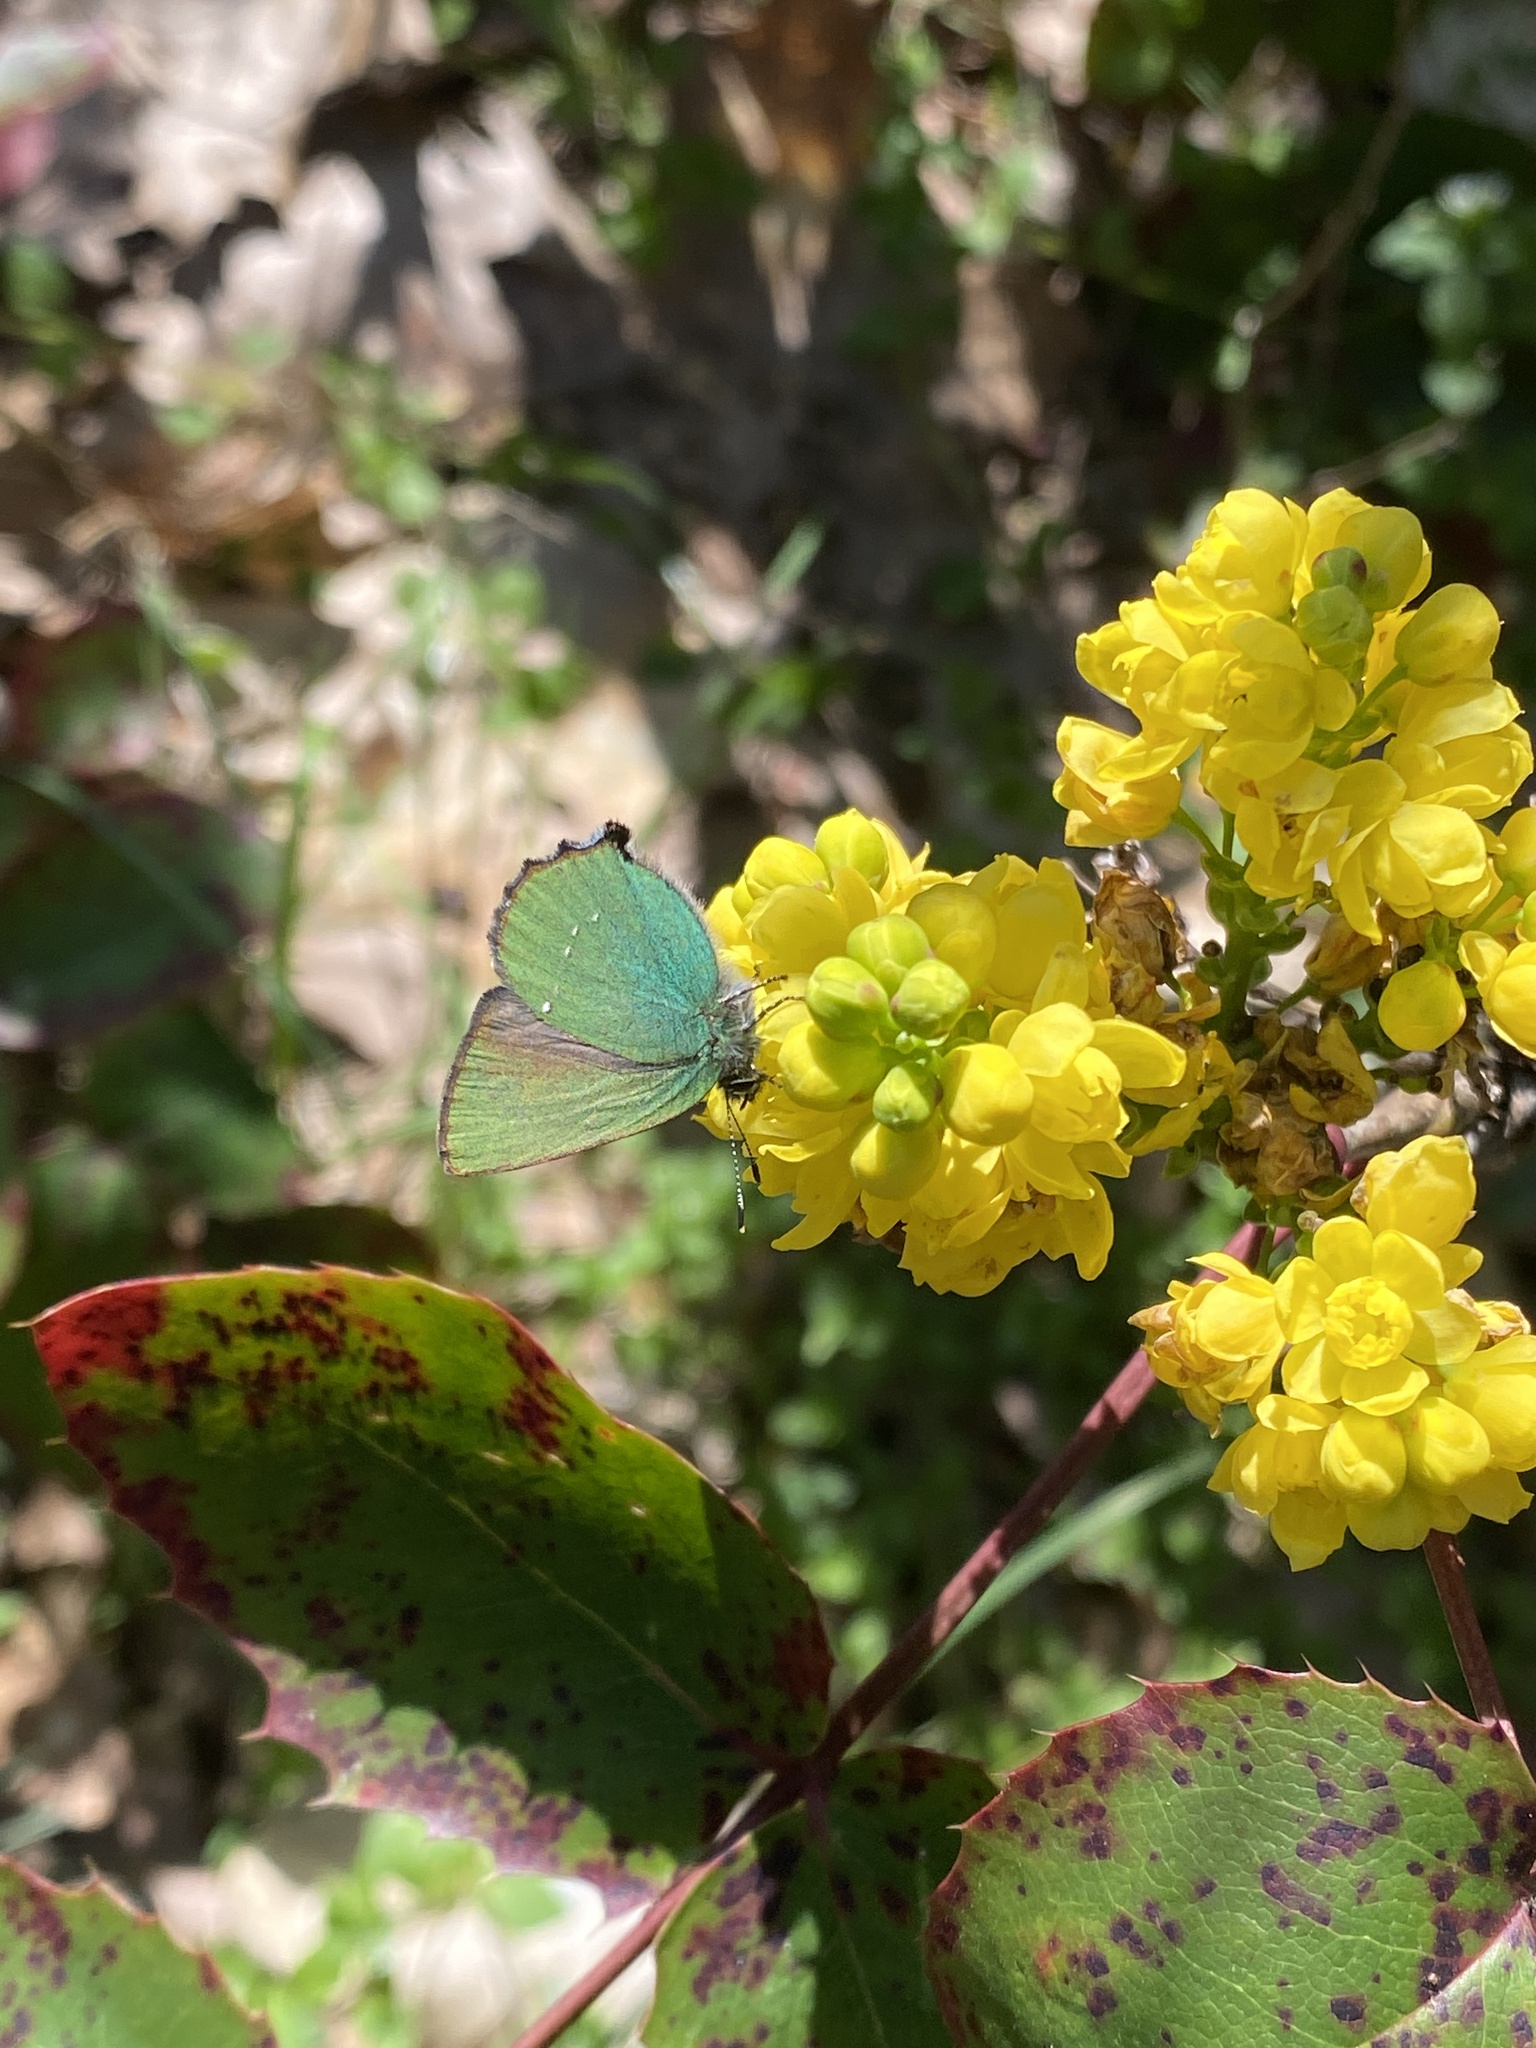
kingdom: Animalia
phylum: Arthropoda
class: Insecta
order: Lepidoptera
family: Lycaenidae
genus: Callophrys
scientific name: Callophrys rubi
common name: Green hairstreak
